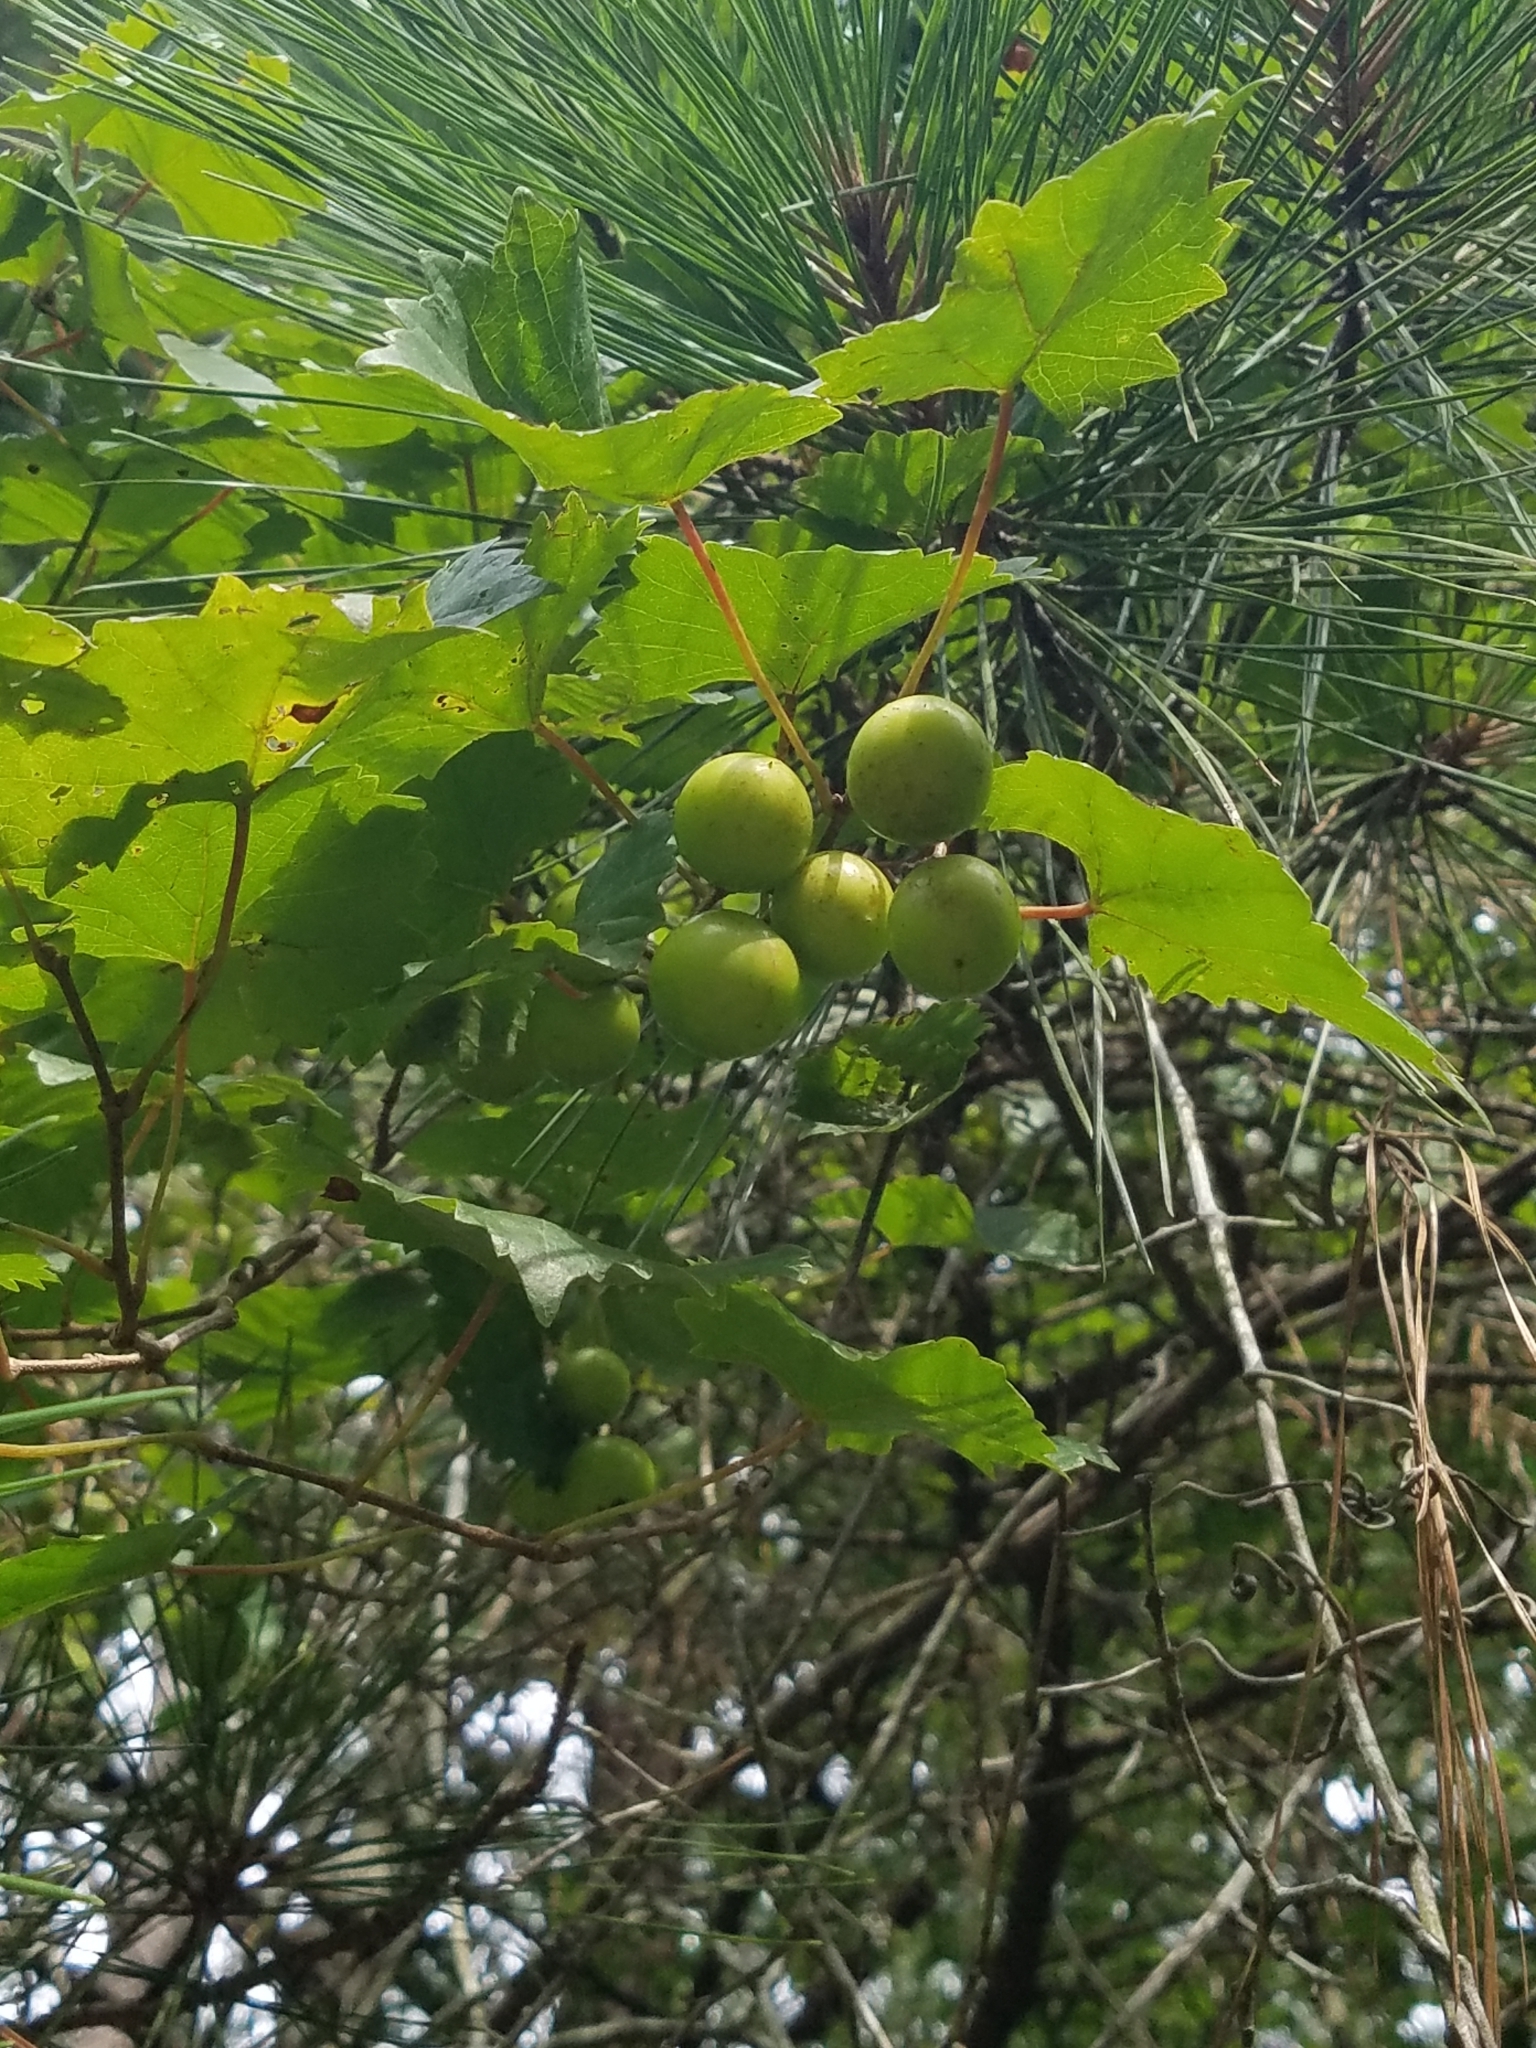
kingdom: Plantae
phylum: Tracheophyta
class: Magnoliopsida
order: Vitales
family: Vitaceae
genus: Vitis
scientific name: Vitis rotundifolia
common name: Muscadine grape
